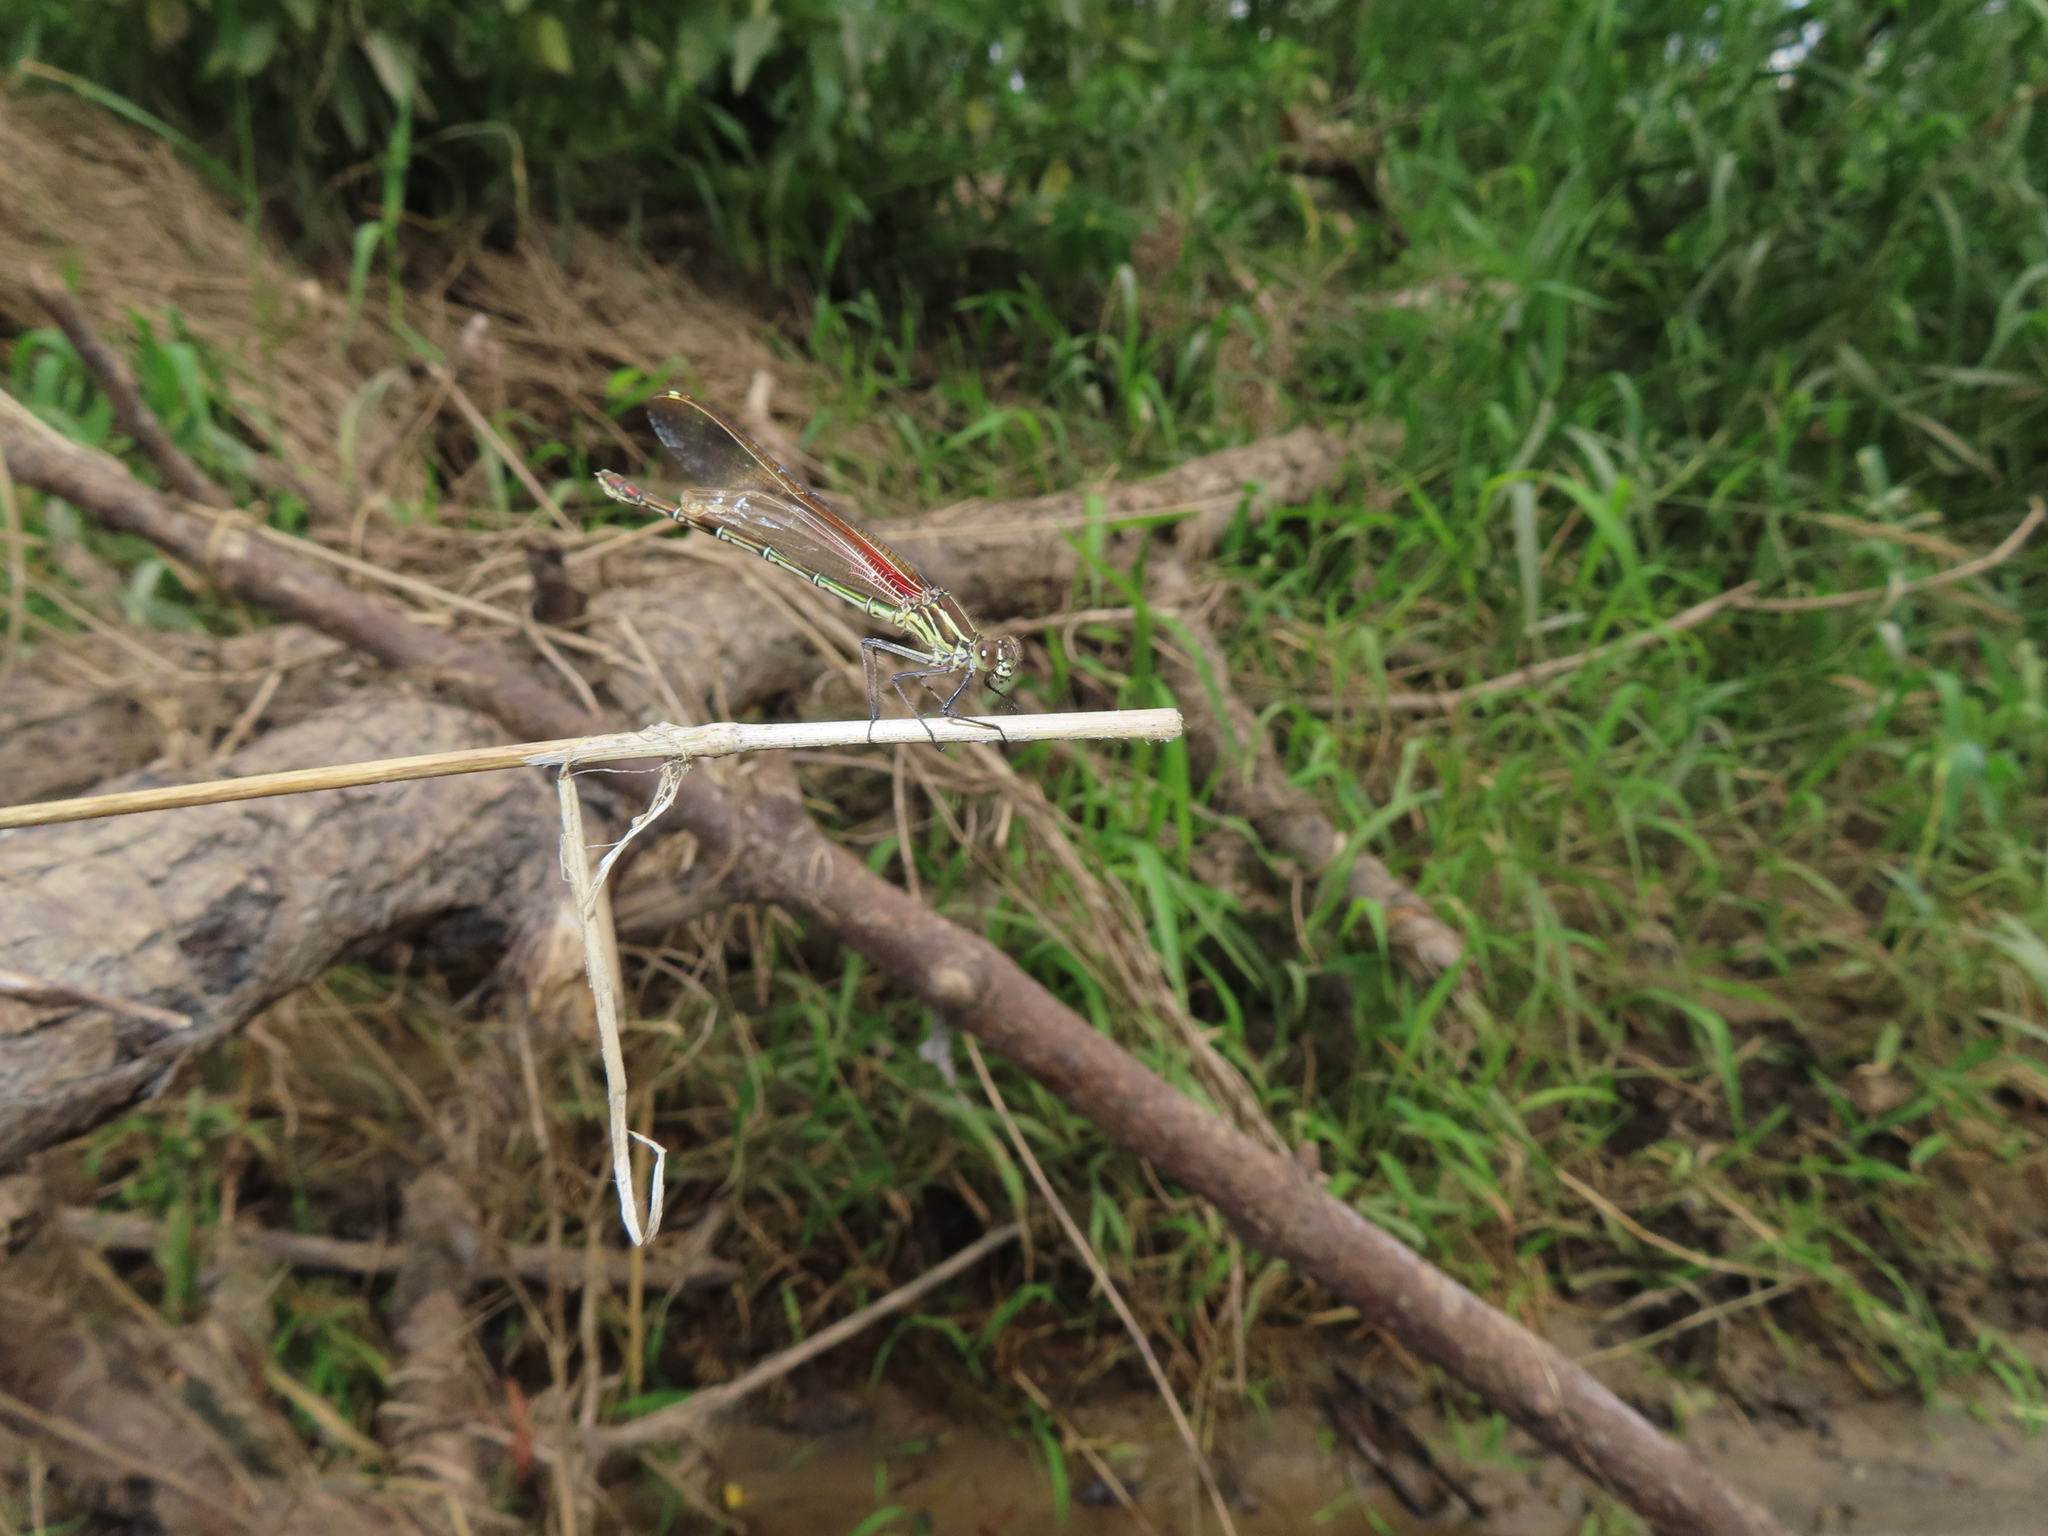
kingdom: Animalia
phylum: Arthropoda
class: Insecta
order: Odonata
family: Calopterygidae
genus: Hetaerina
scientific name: Hetaerina americana
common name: American rubyspot
